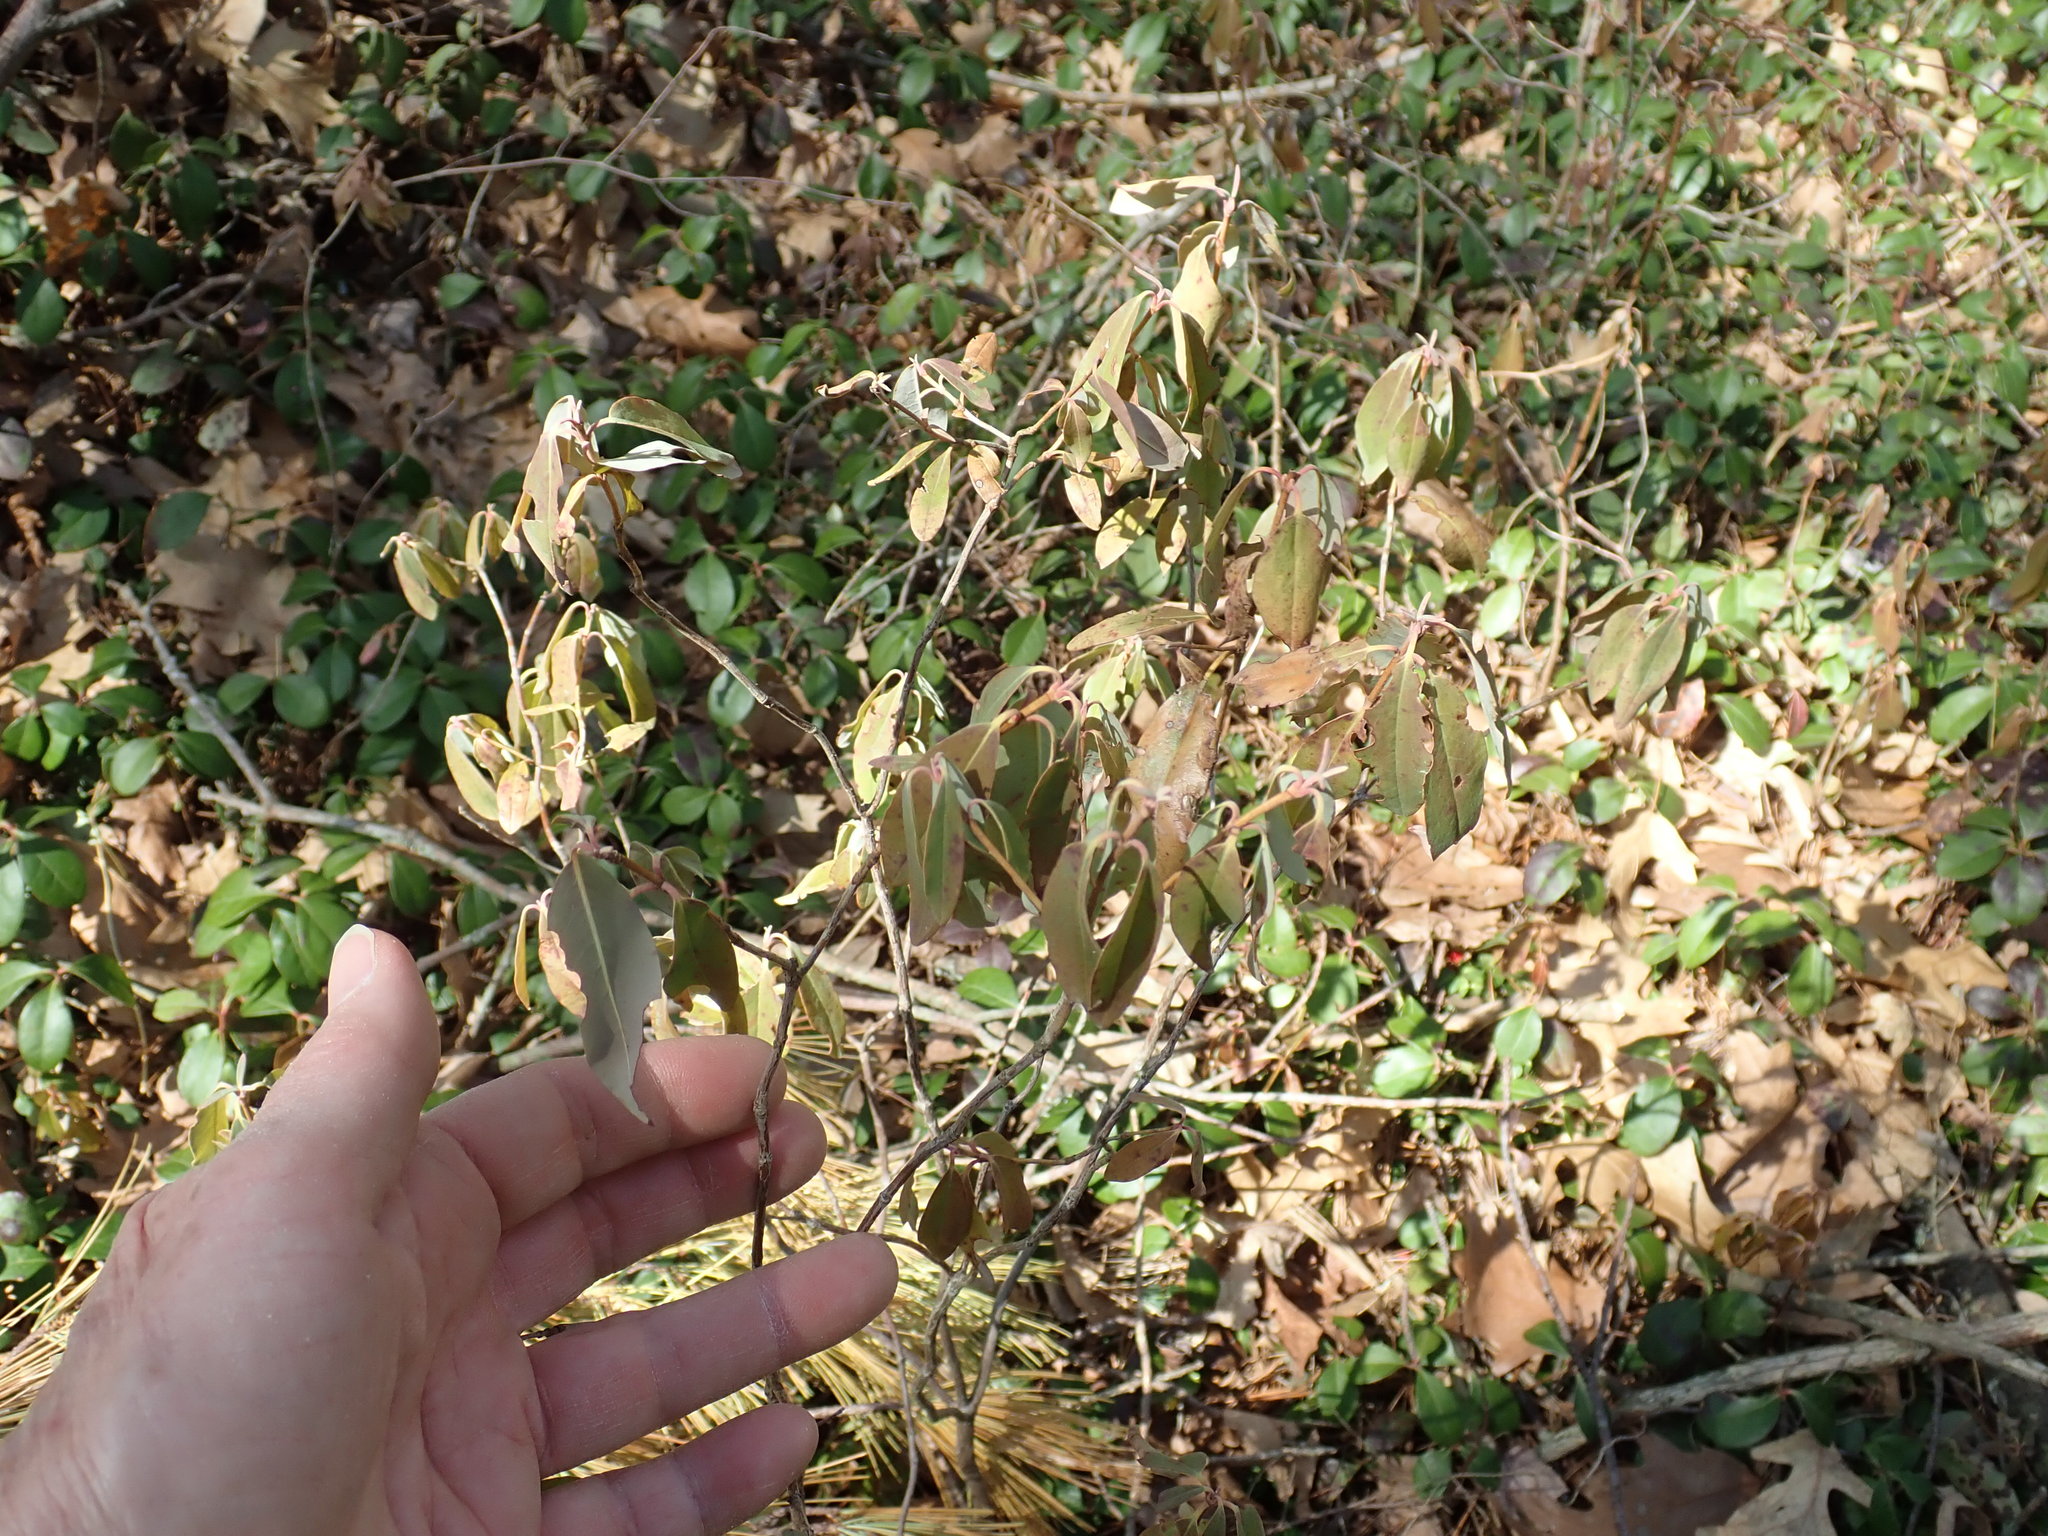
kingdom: Plantae
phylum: Tracheophyta
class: Magnoliopsida
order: Ericales
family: Ericaceae
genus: Kalmia
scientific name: Kalmia angustifolia
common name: Sheep-laurel
